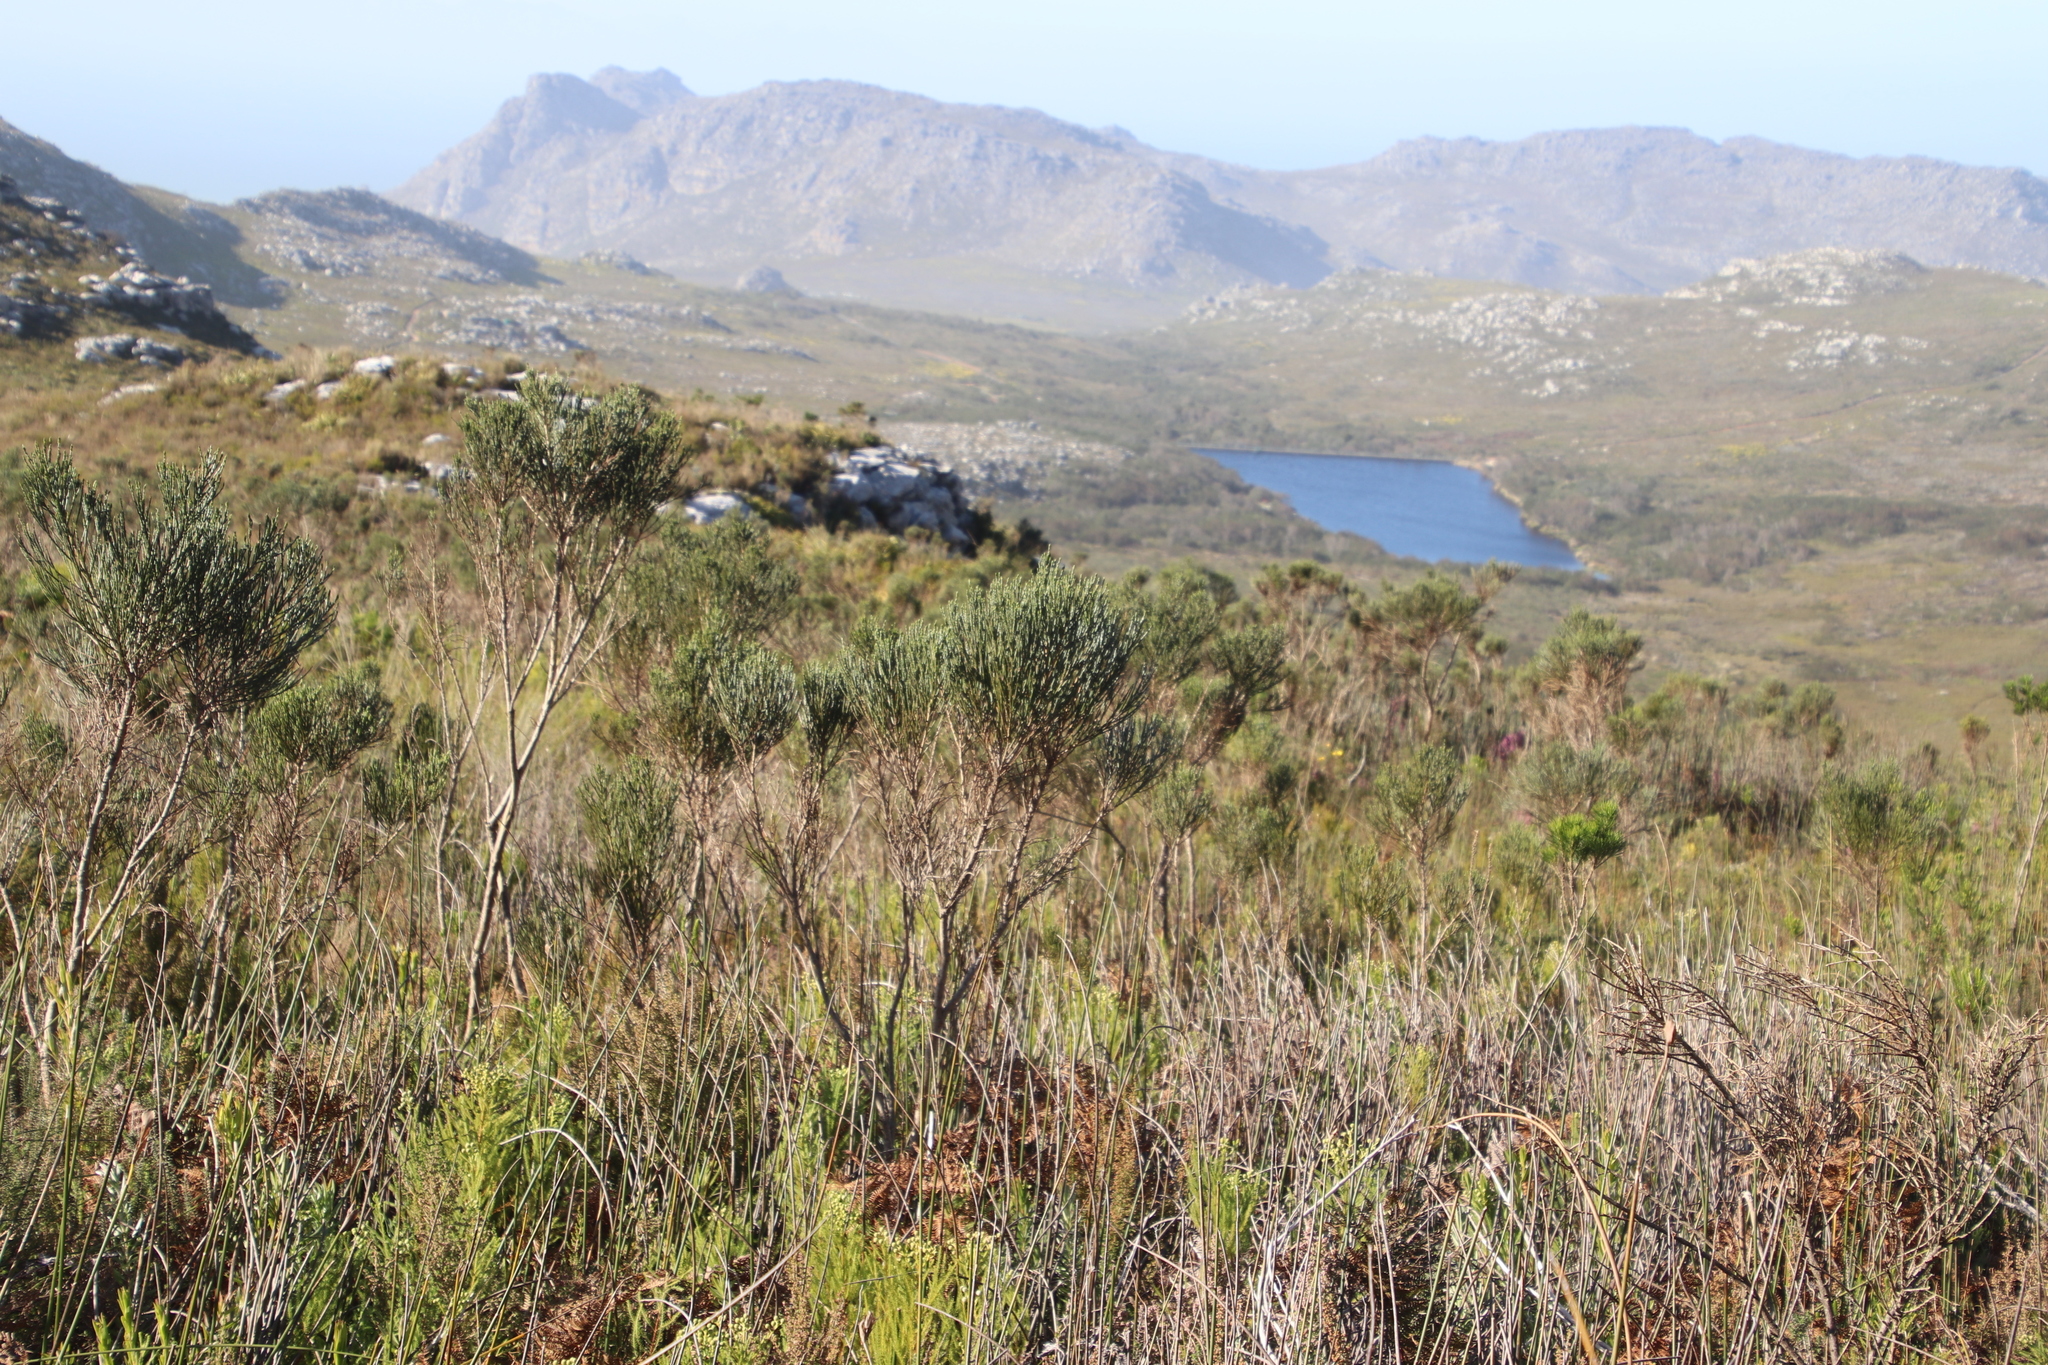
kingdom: Plantae
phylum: Tracheophyta
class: Magnoliopsida
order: Fabales
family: Fabaceae
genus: Psoralea
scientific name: Psoralea congesta
